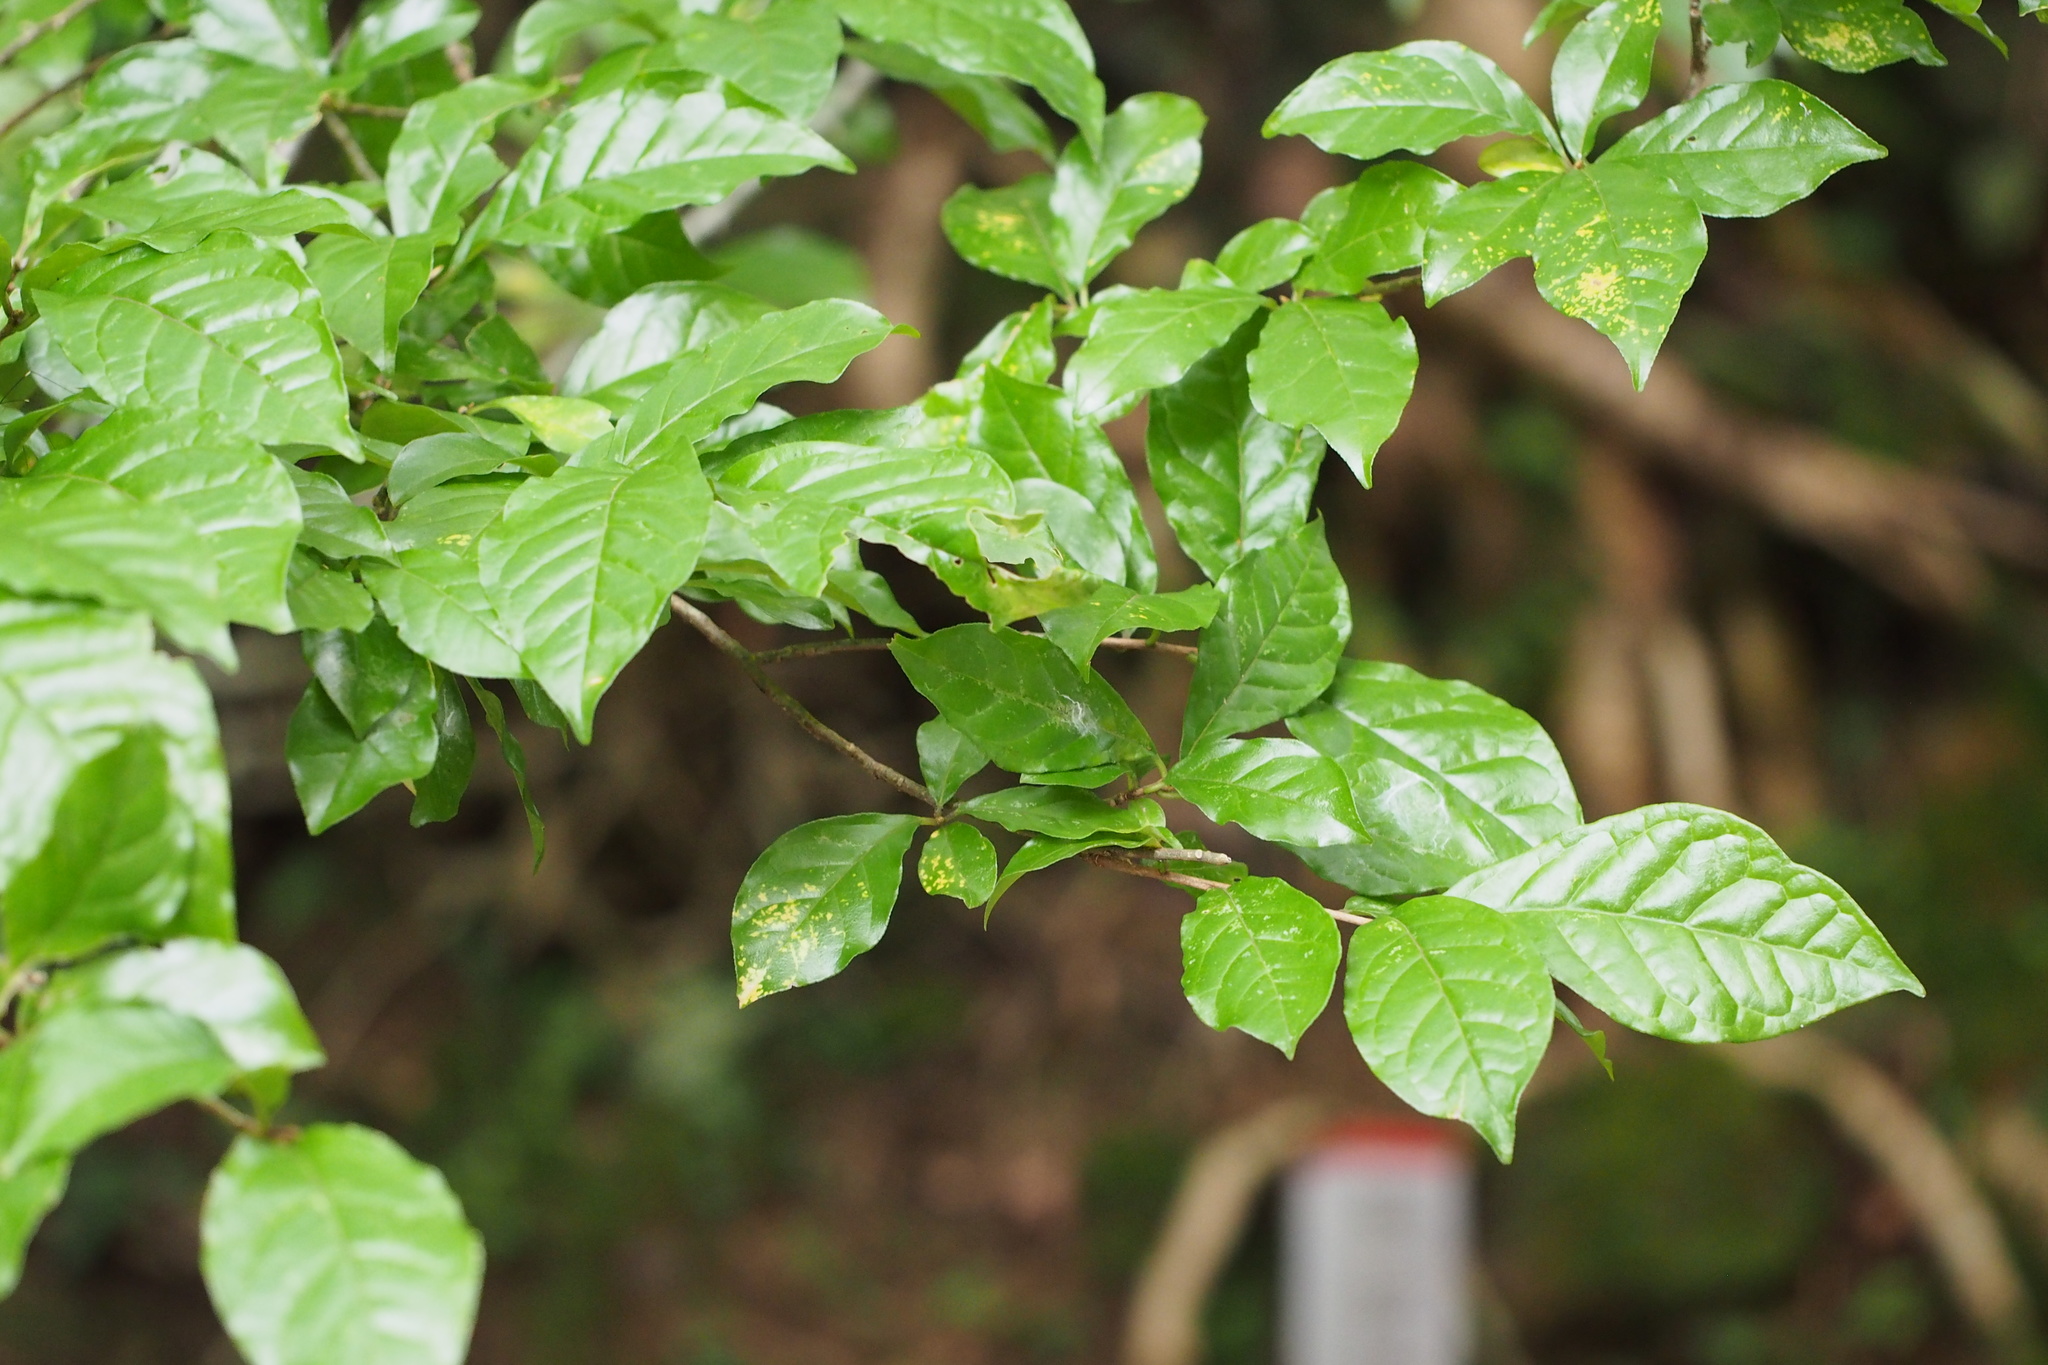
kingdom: Plantae
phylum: Tracheophyta
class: Magnoliopsida
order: Sapindales
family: Rutaceae
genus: Orixa
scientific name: Orixa japonica
